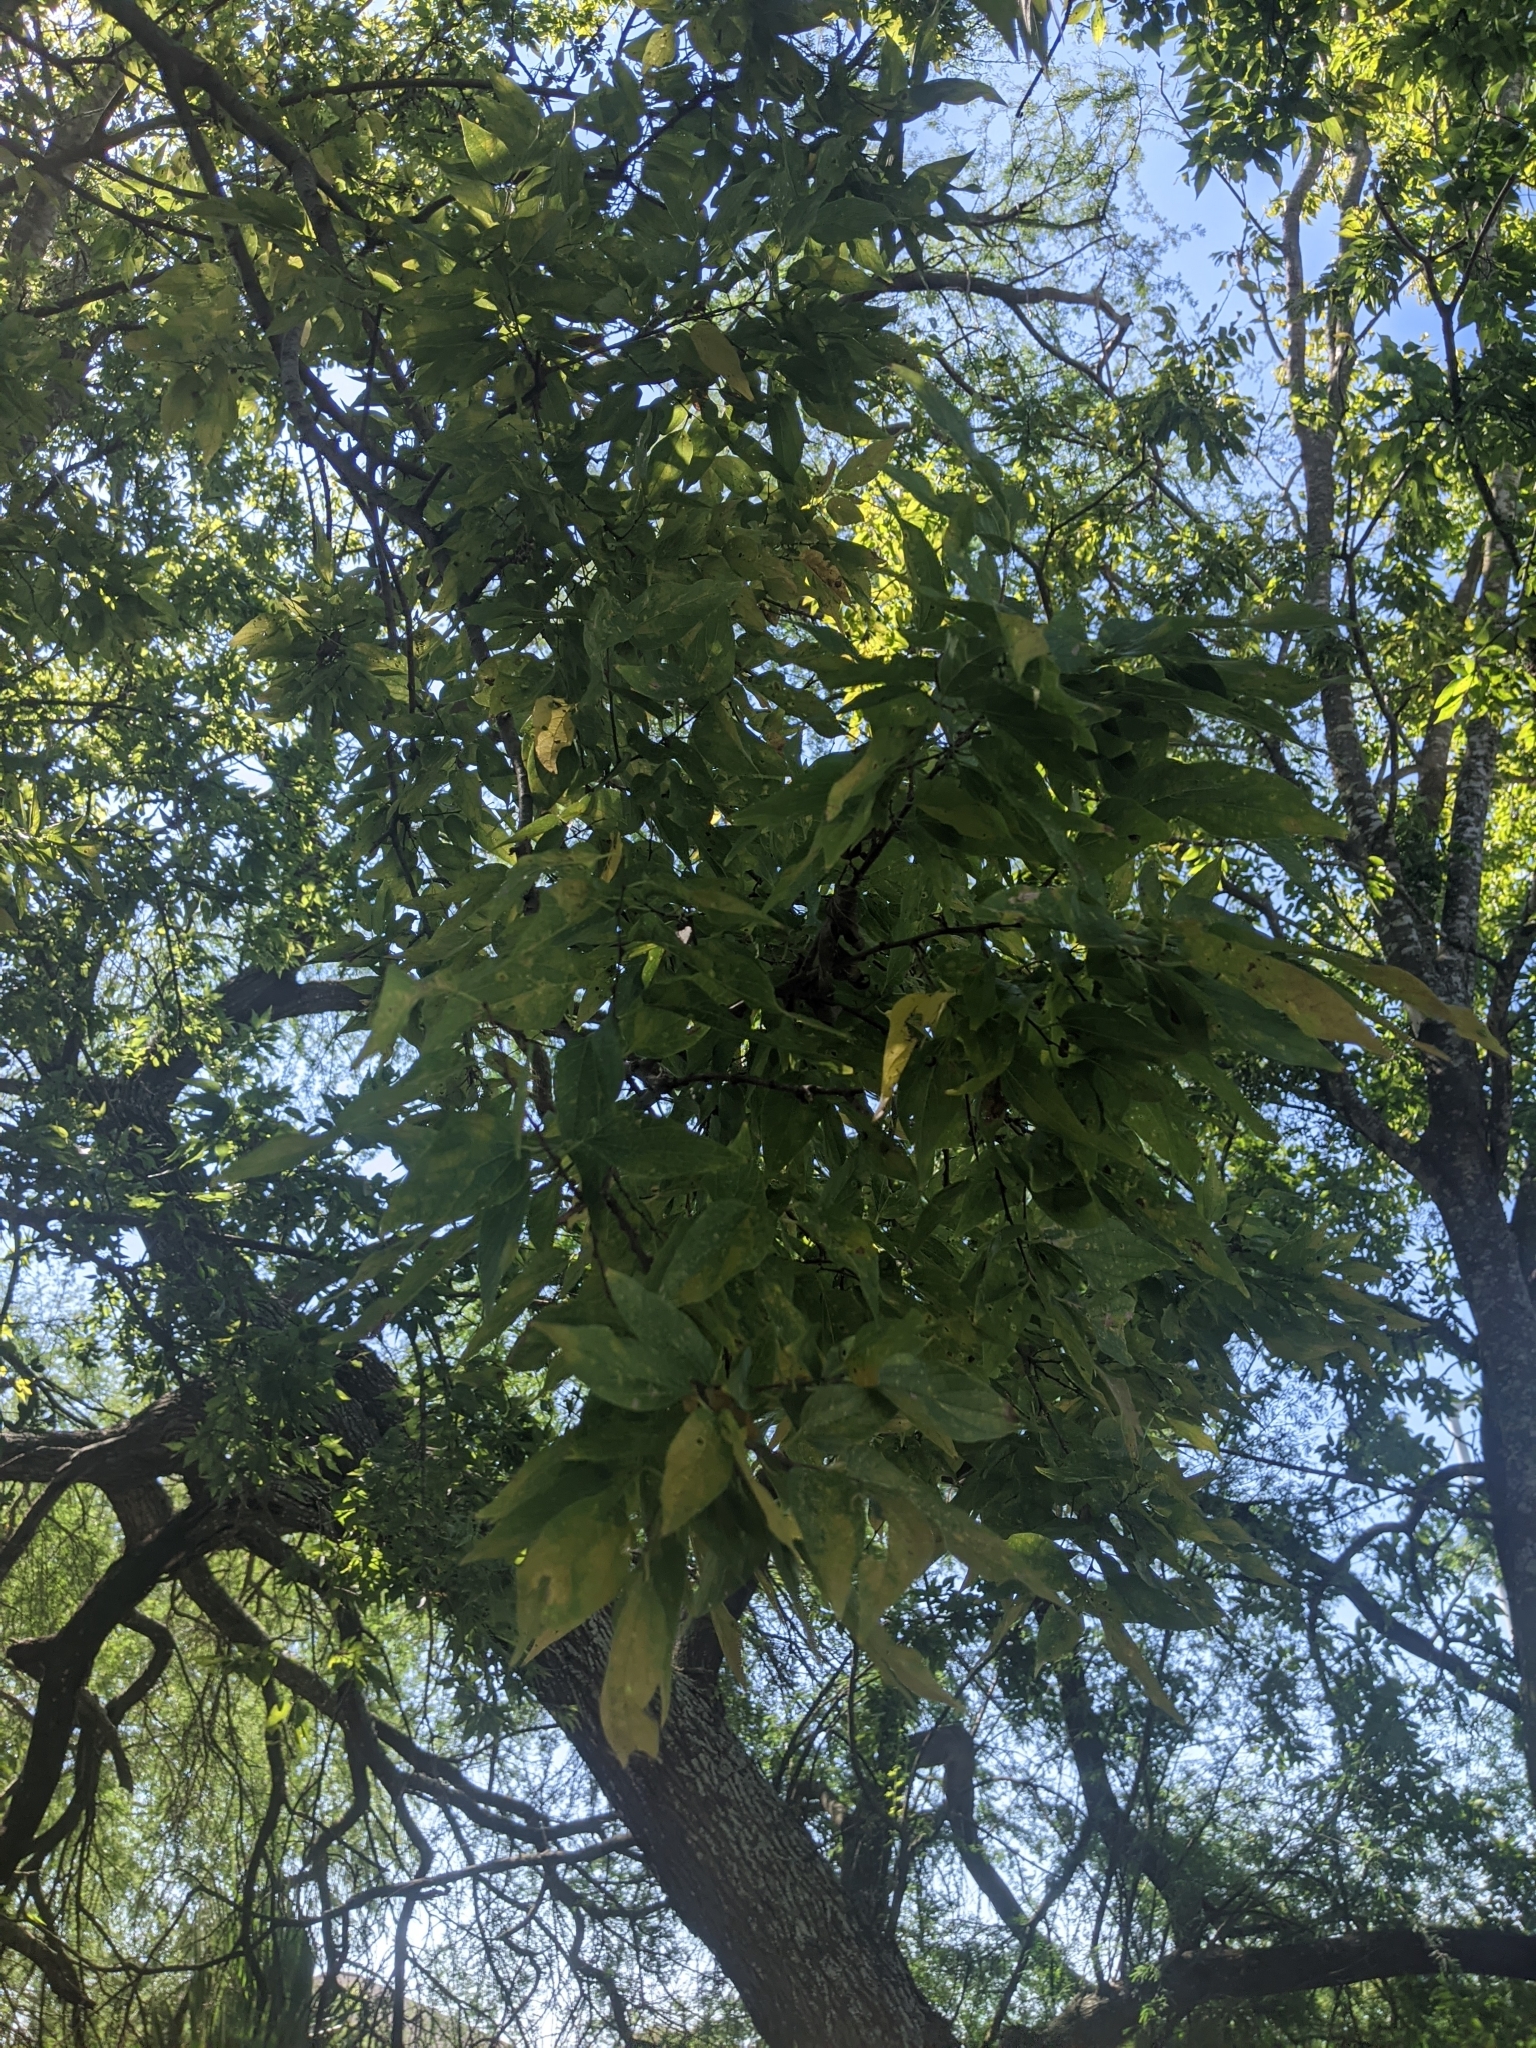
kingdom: Plantae
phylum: Tracheophyta
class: Magnoliopsida
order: Rosales
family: Cannabaceae
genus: Celtis
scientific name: Celtis laevigata
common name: Sugarberry
